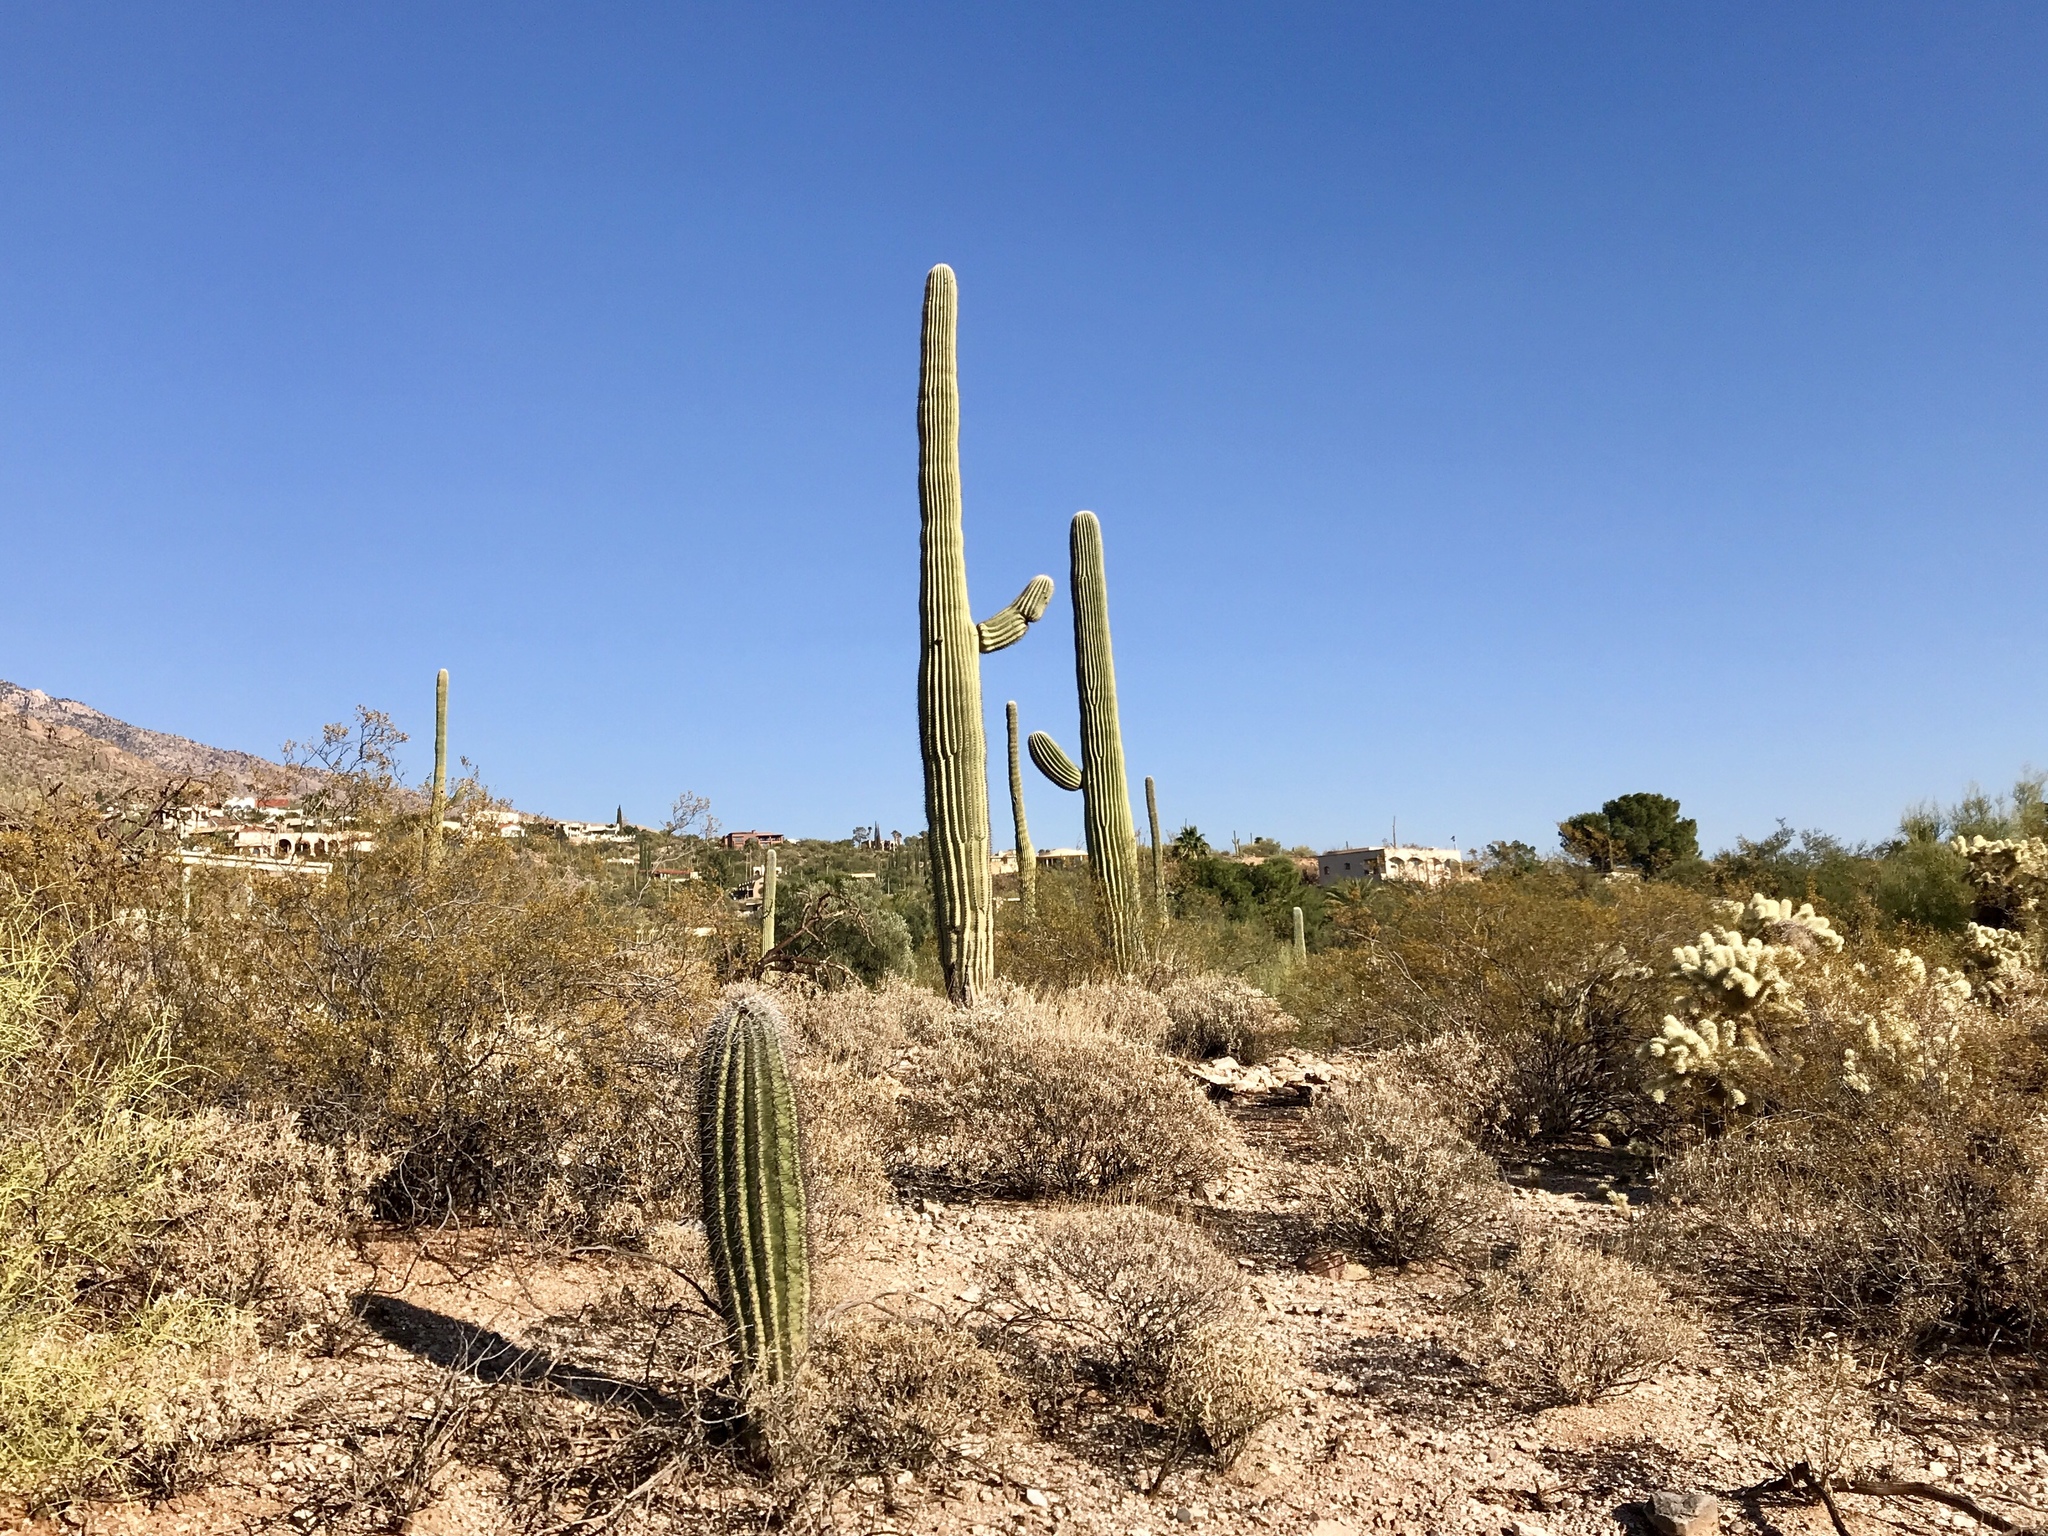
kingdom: Plantae
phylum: Tracheophyta
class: Magnoliopsida
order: Caryophyllales
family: Cactaceae
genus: Carnegiea
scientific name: Carnegiea gigantea
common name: Saguaro
